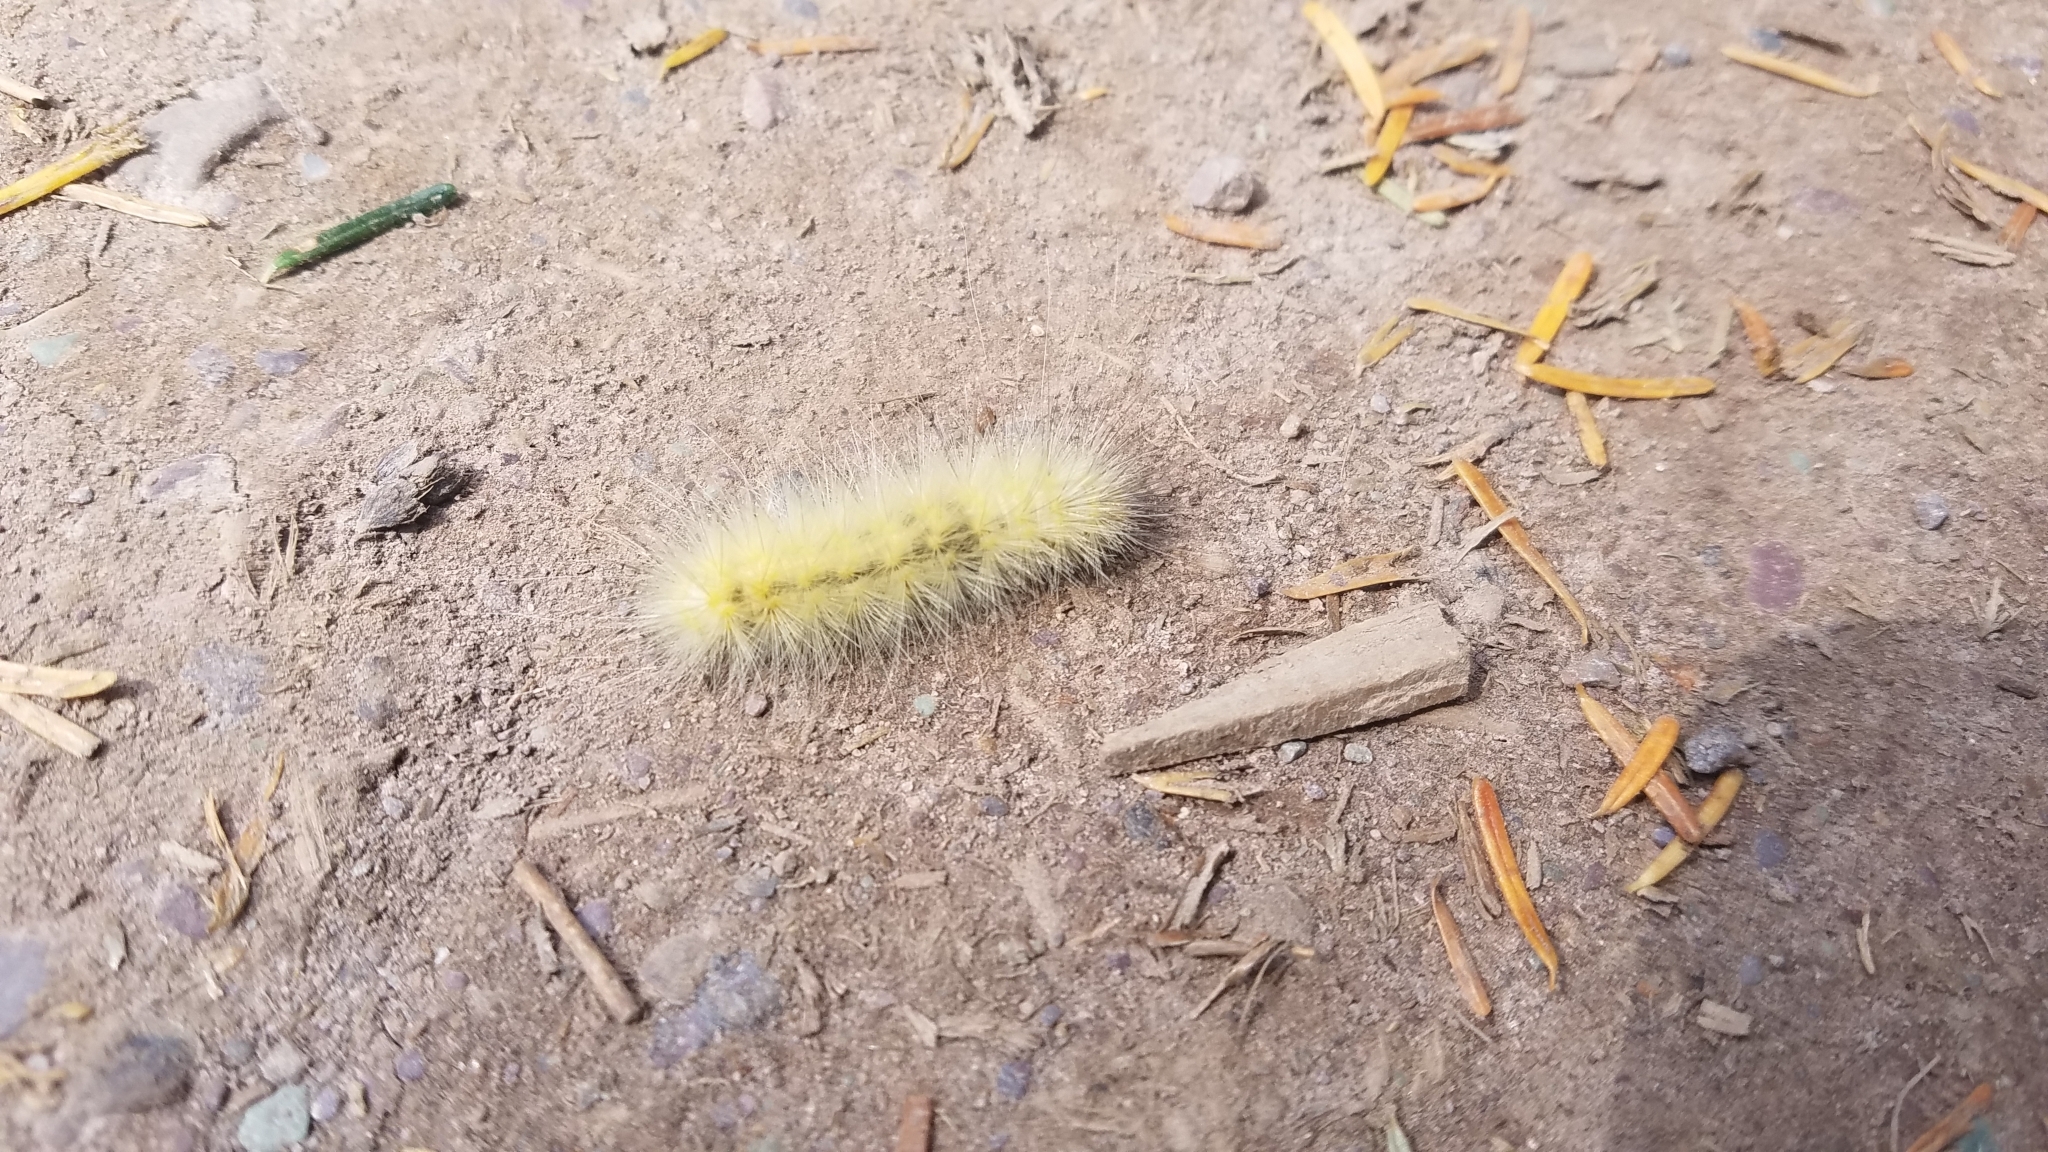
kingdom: Animalia
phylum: Arthropoda
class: Insecta
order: Lepidoptera
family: Erebidae
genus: Spilosoma
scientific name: Spilosoma virginica
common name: Virginia tiger moth
